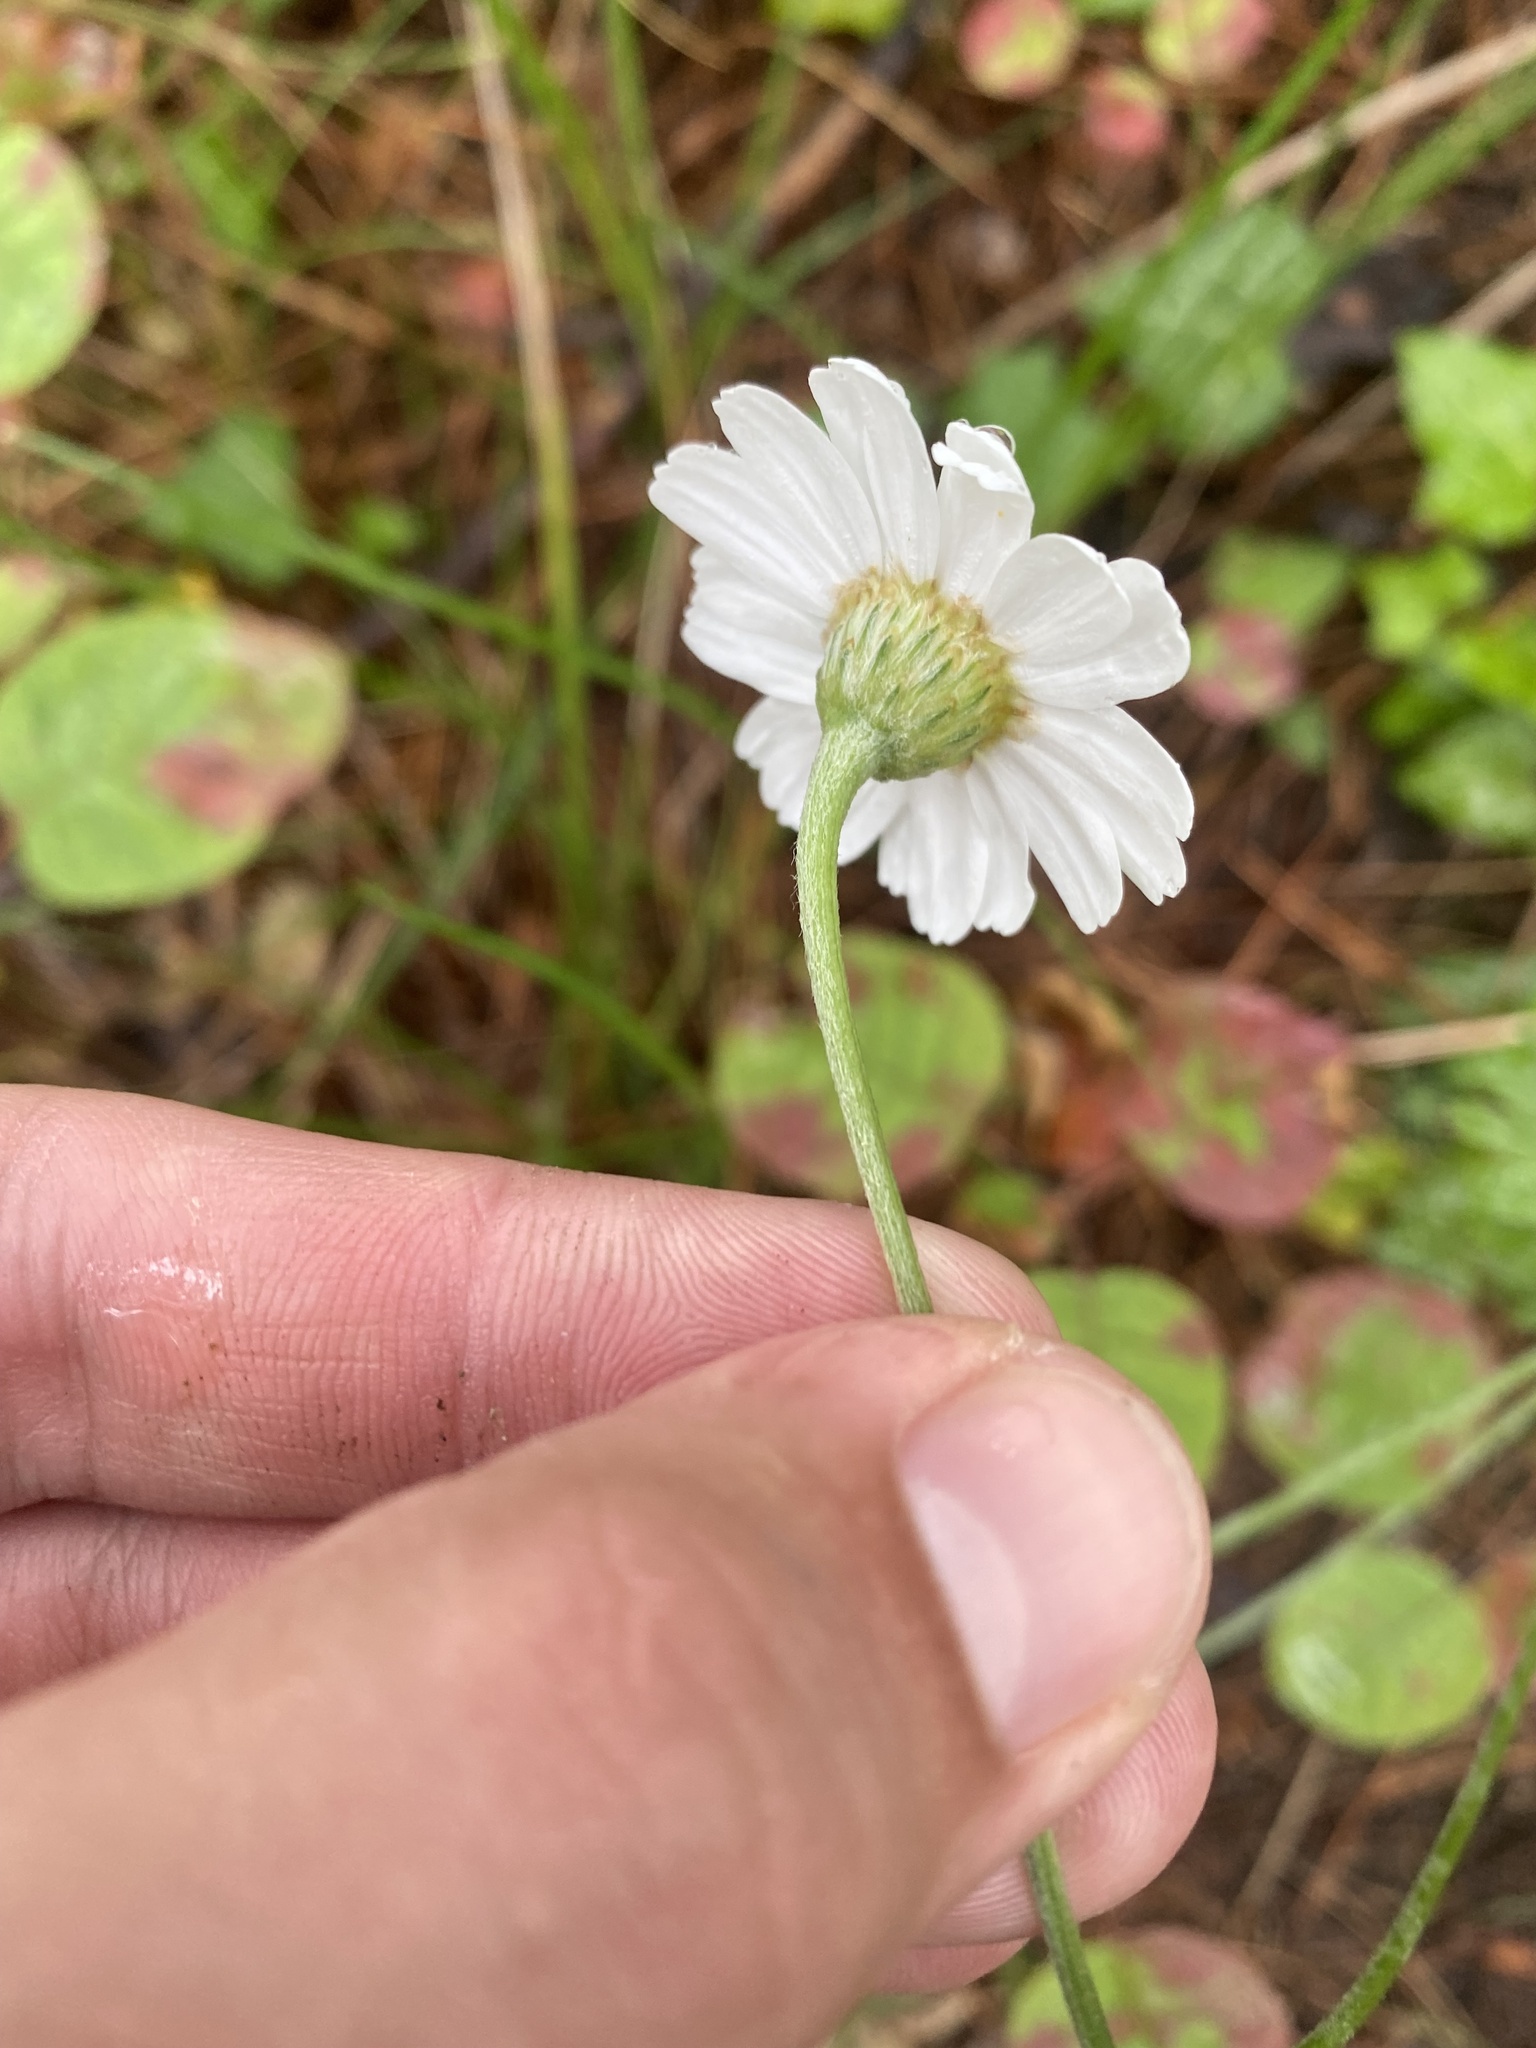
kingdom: Plantae
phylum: Tracheophyta
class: Magnoliopsida
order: Asterales
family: Asteraceae
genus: Tanacetum
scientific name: Tanacetum poteriifolium
